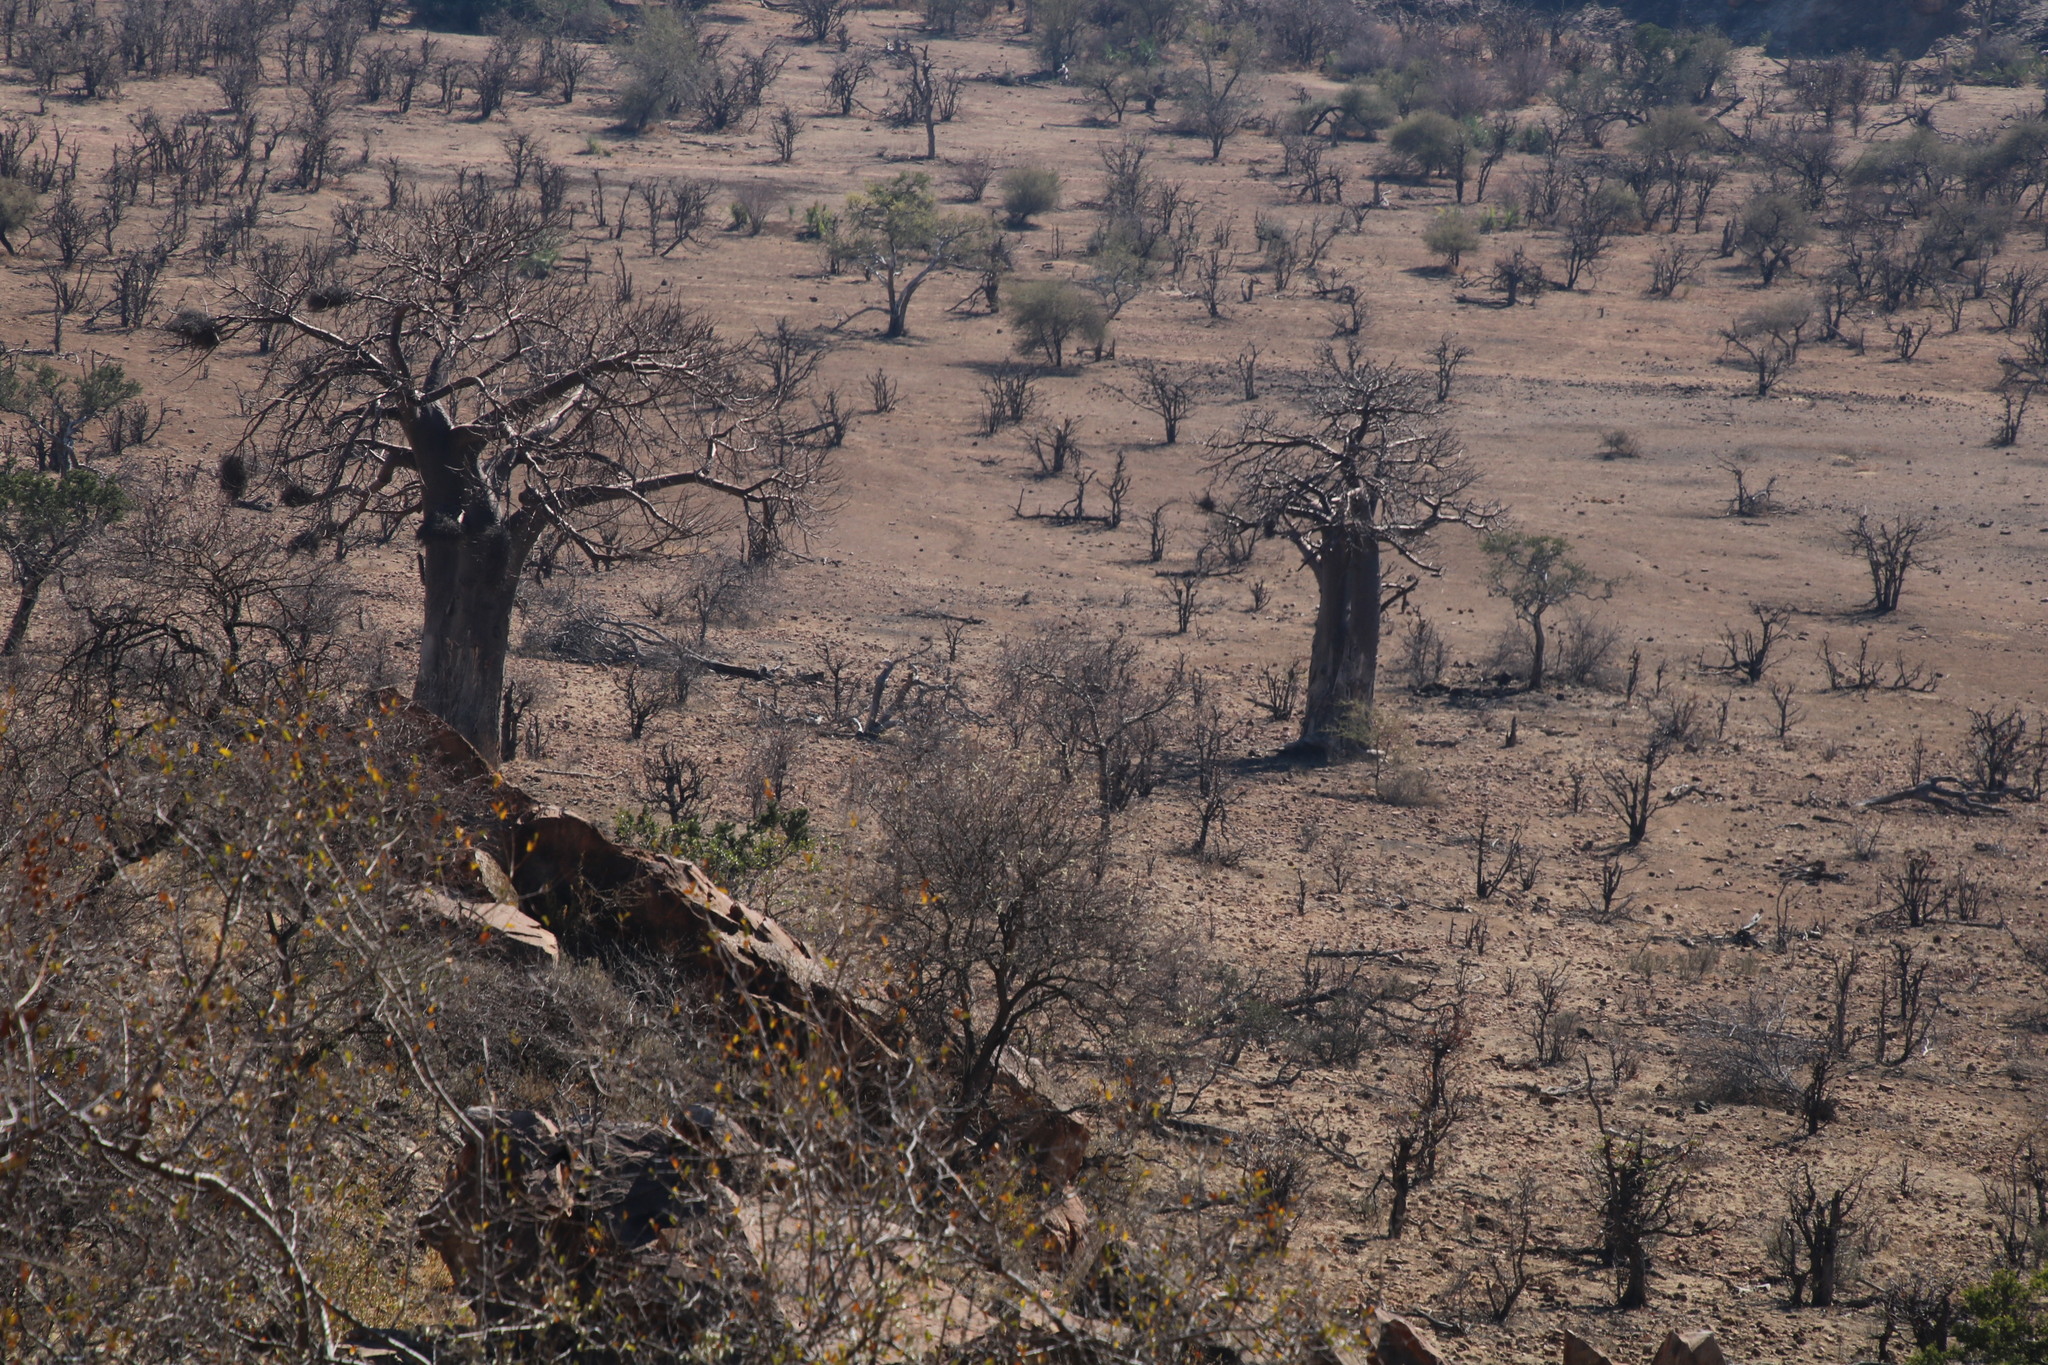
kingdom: Plantae
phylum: Tracheophyta
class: Magnoliopsida
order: Malvales
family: Malvaceae
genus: Adansonia
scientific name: Adansonia digitata
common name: Dead-rat-tree
